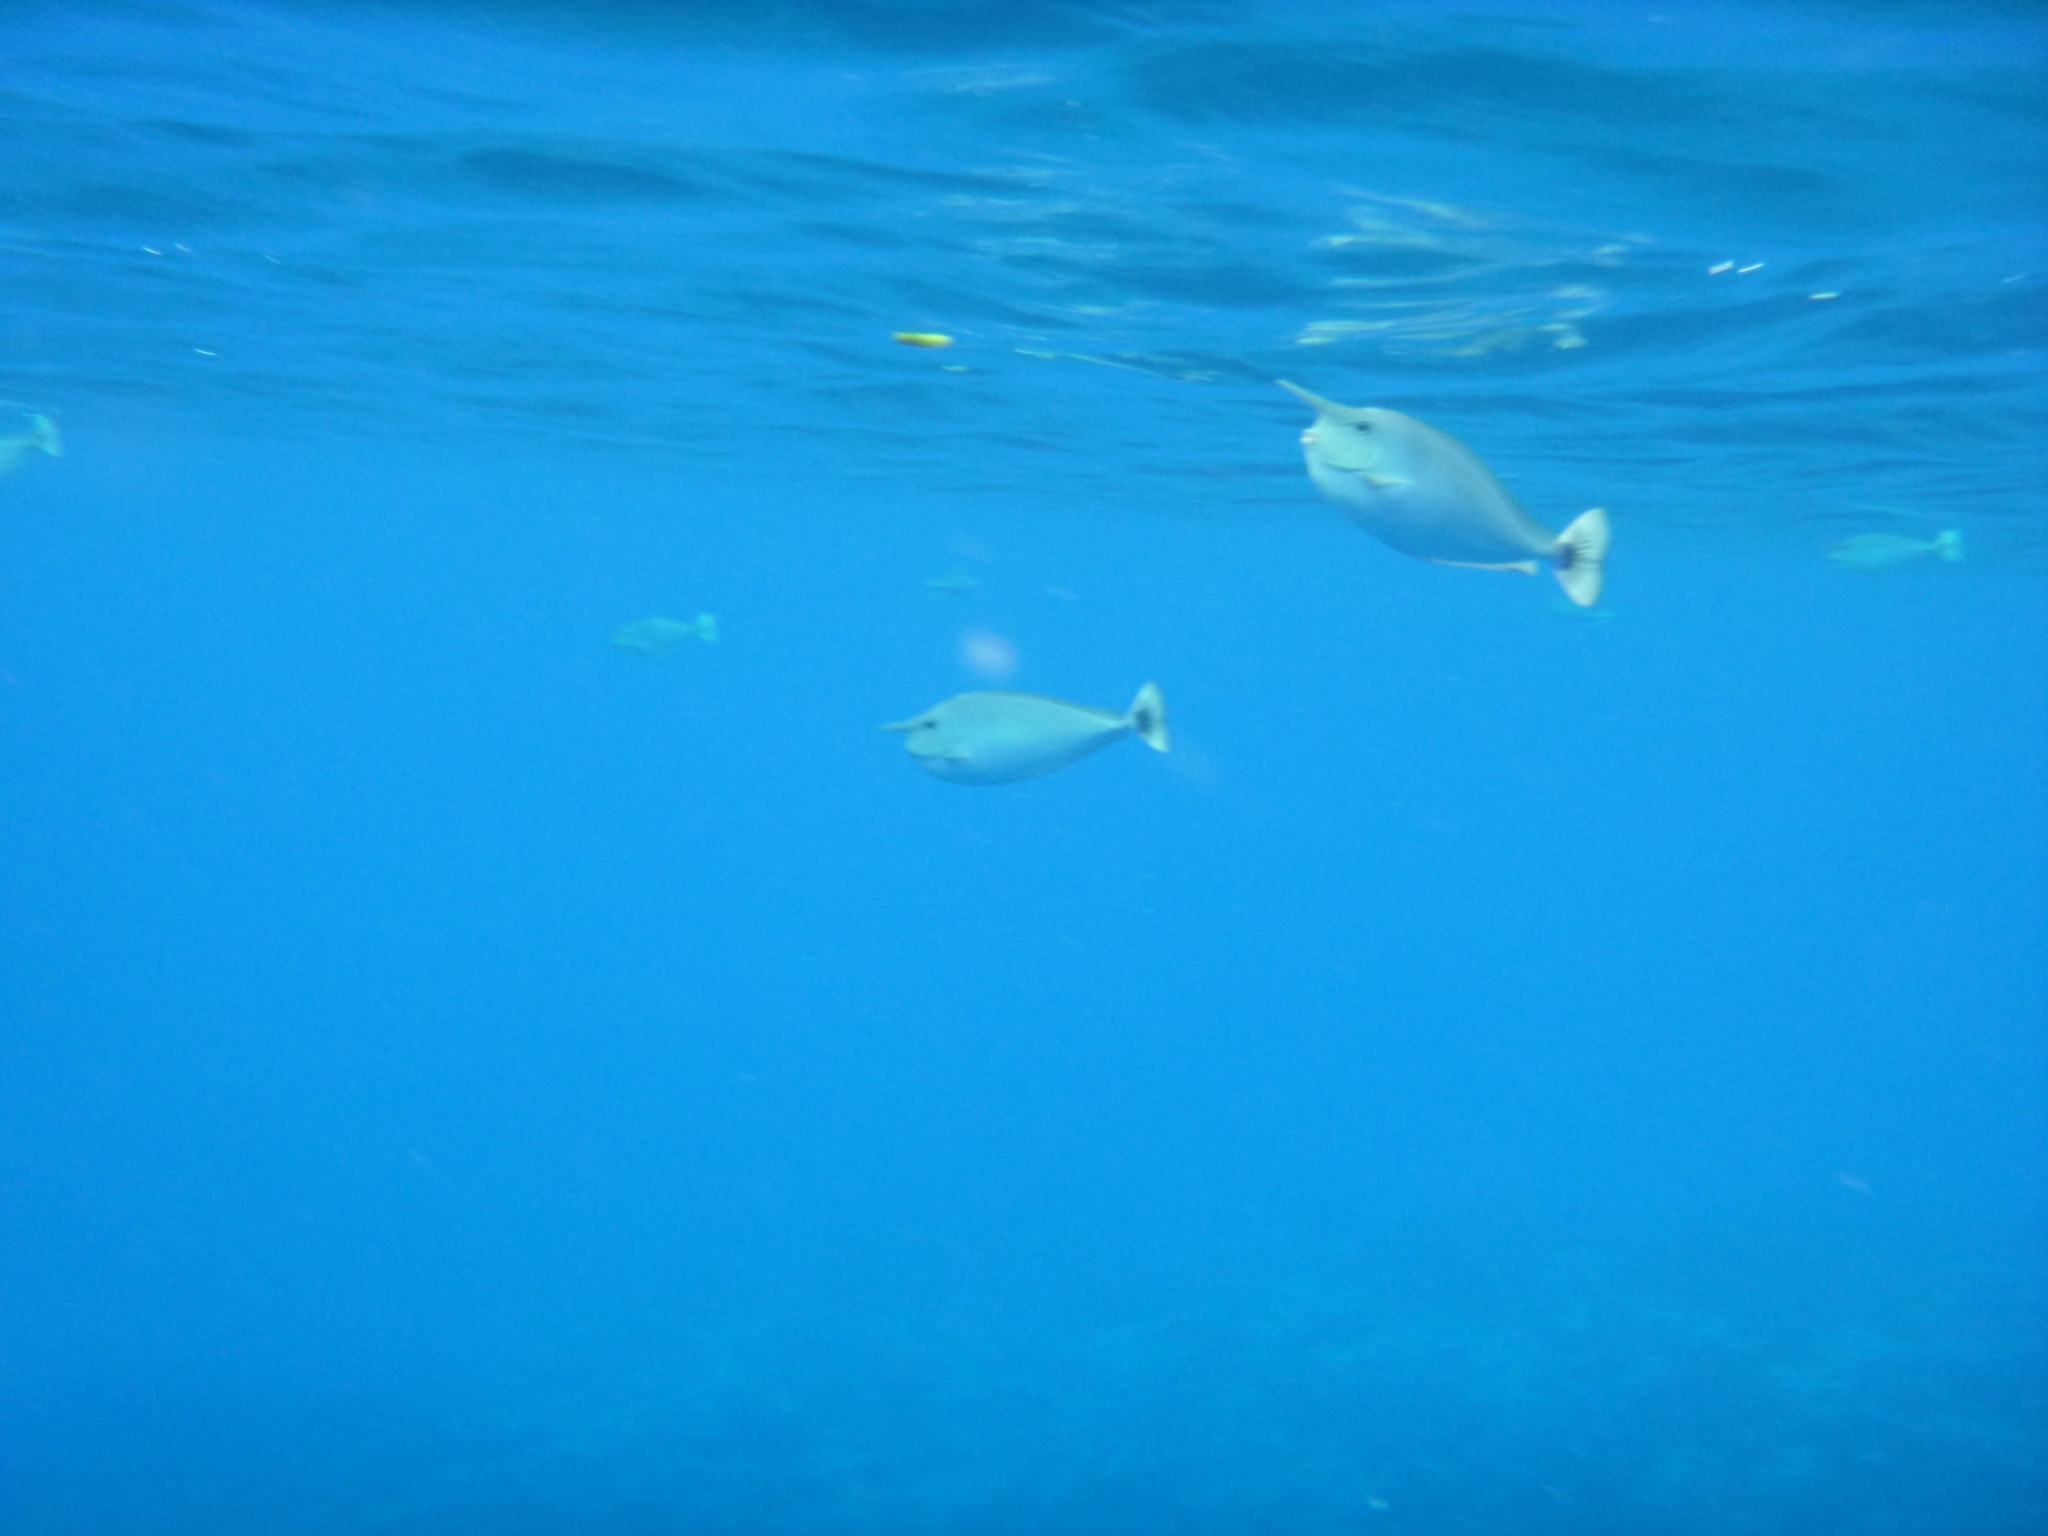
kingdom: Animalia
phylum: Chordata
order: Perciformes
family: Acanthuridae
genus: Naso
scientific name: Naso brevirostris
